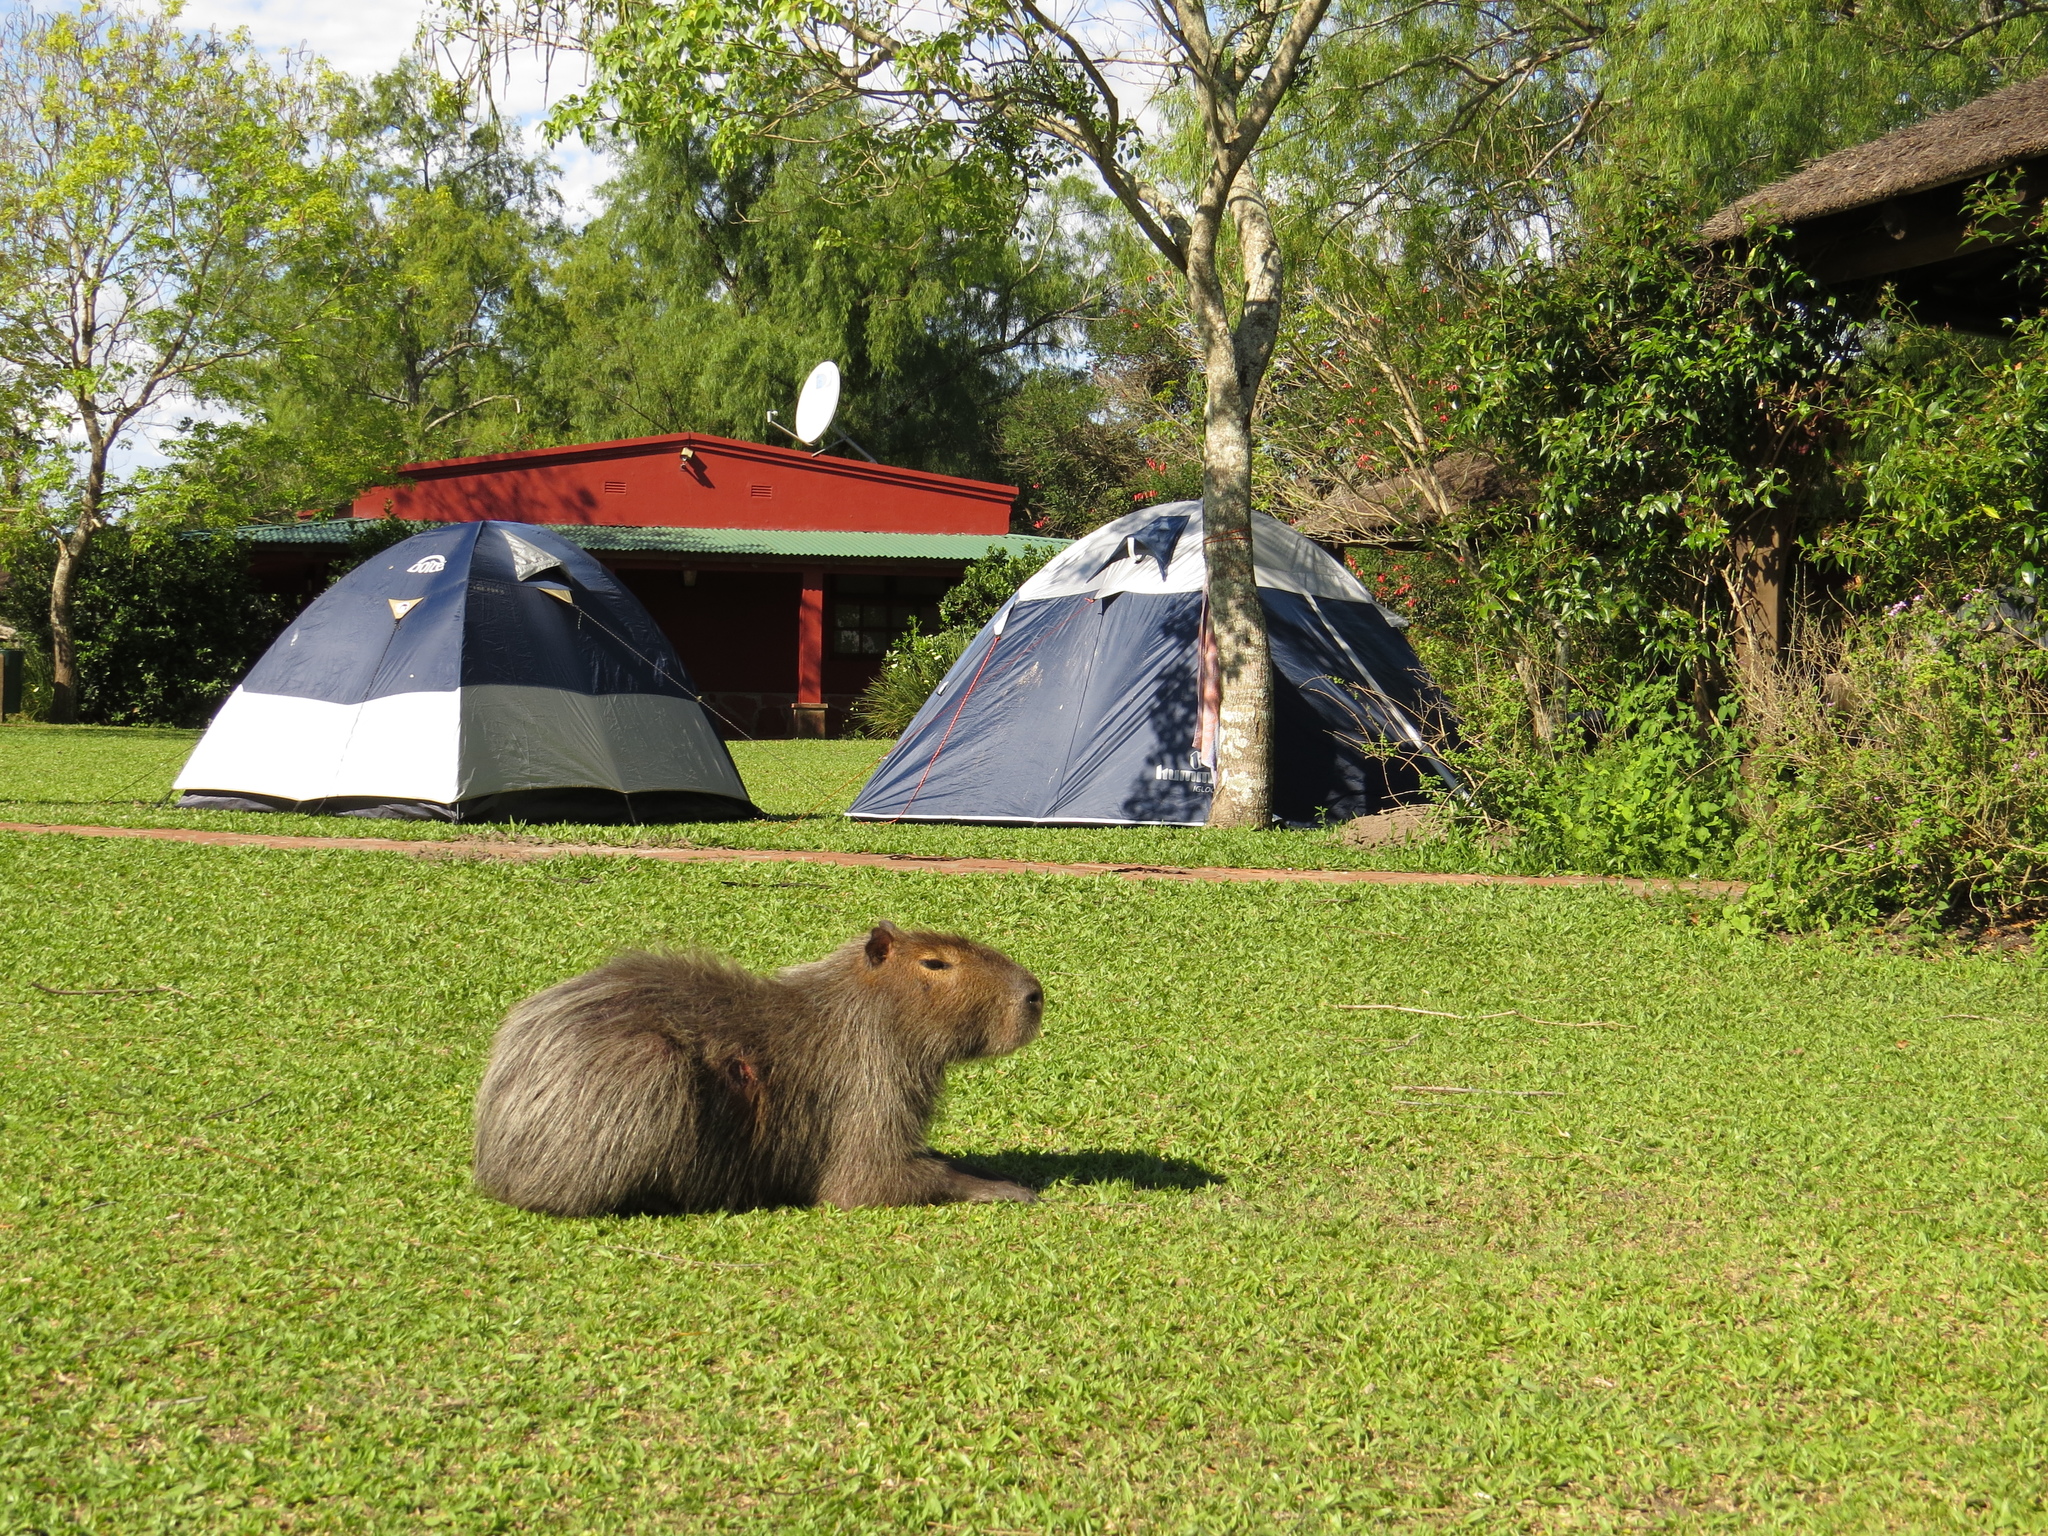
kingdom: Animalia
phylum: Chordata
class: Mammalia
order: Rodentia
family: Caviidae
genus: Hydrochoerus
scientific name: Hydrochoerus hydrochaeris
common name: Capybara
